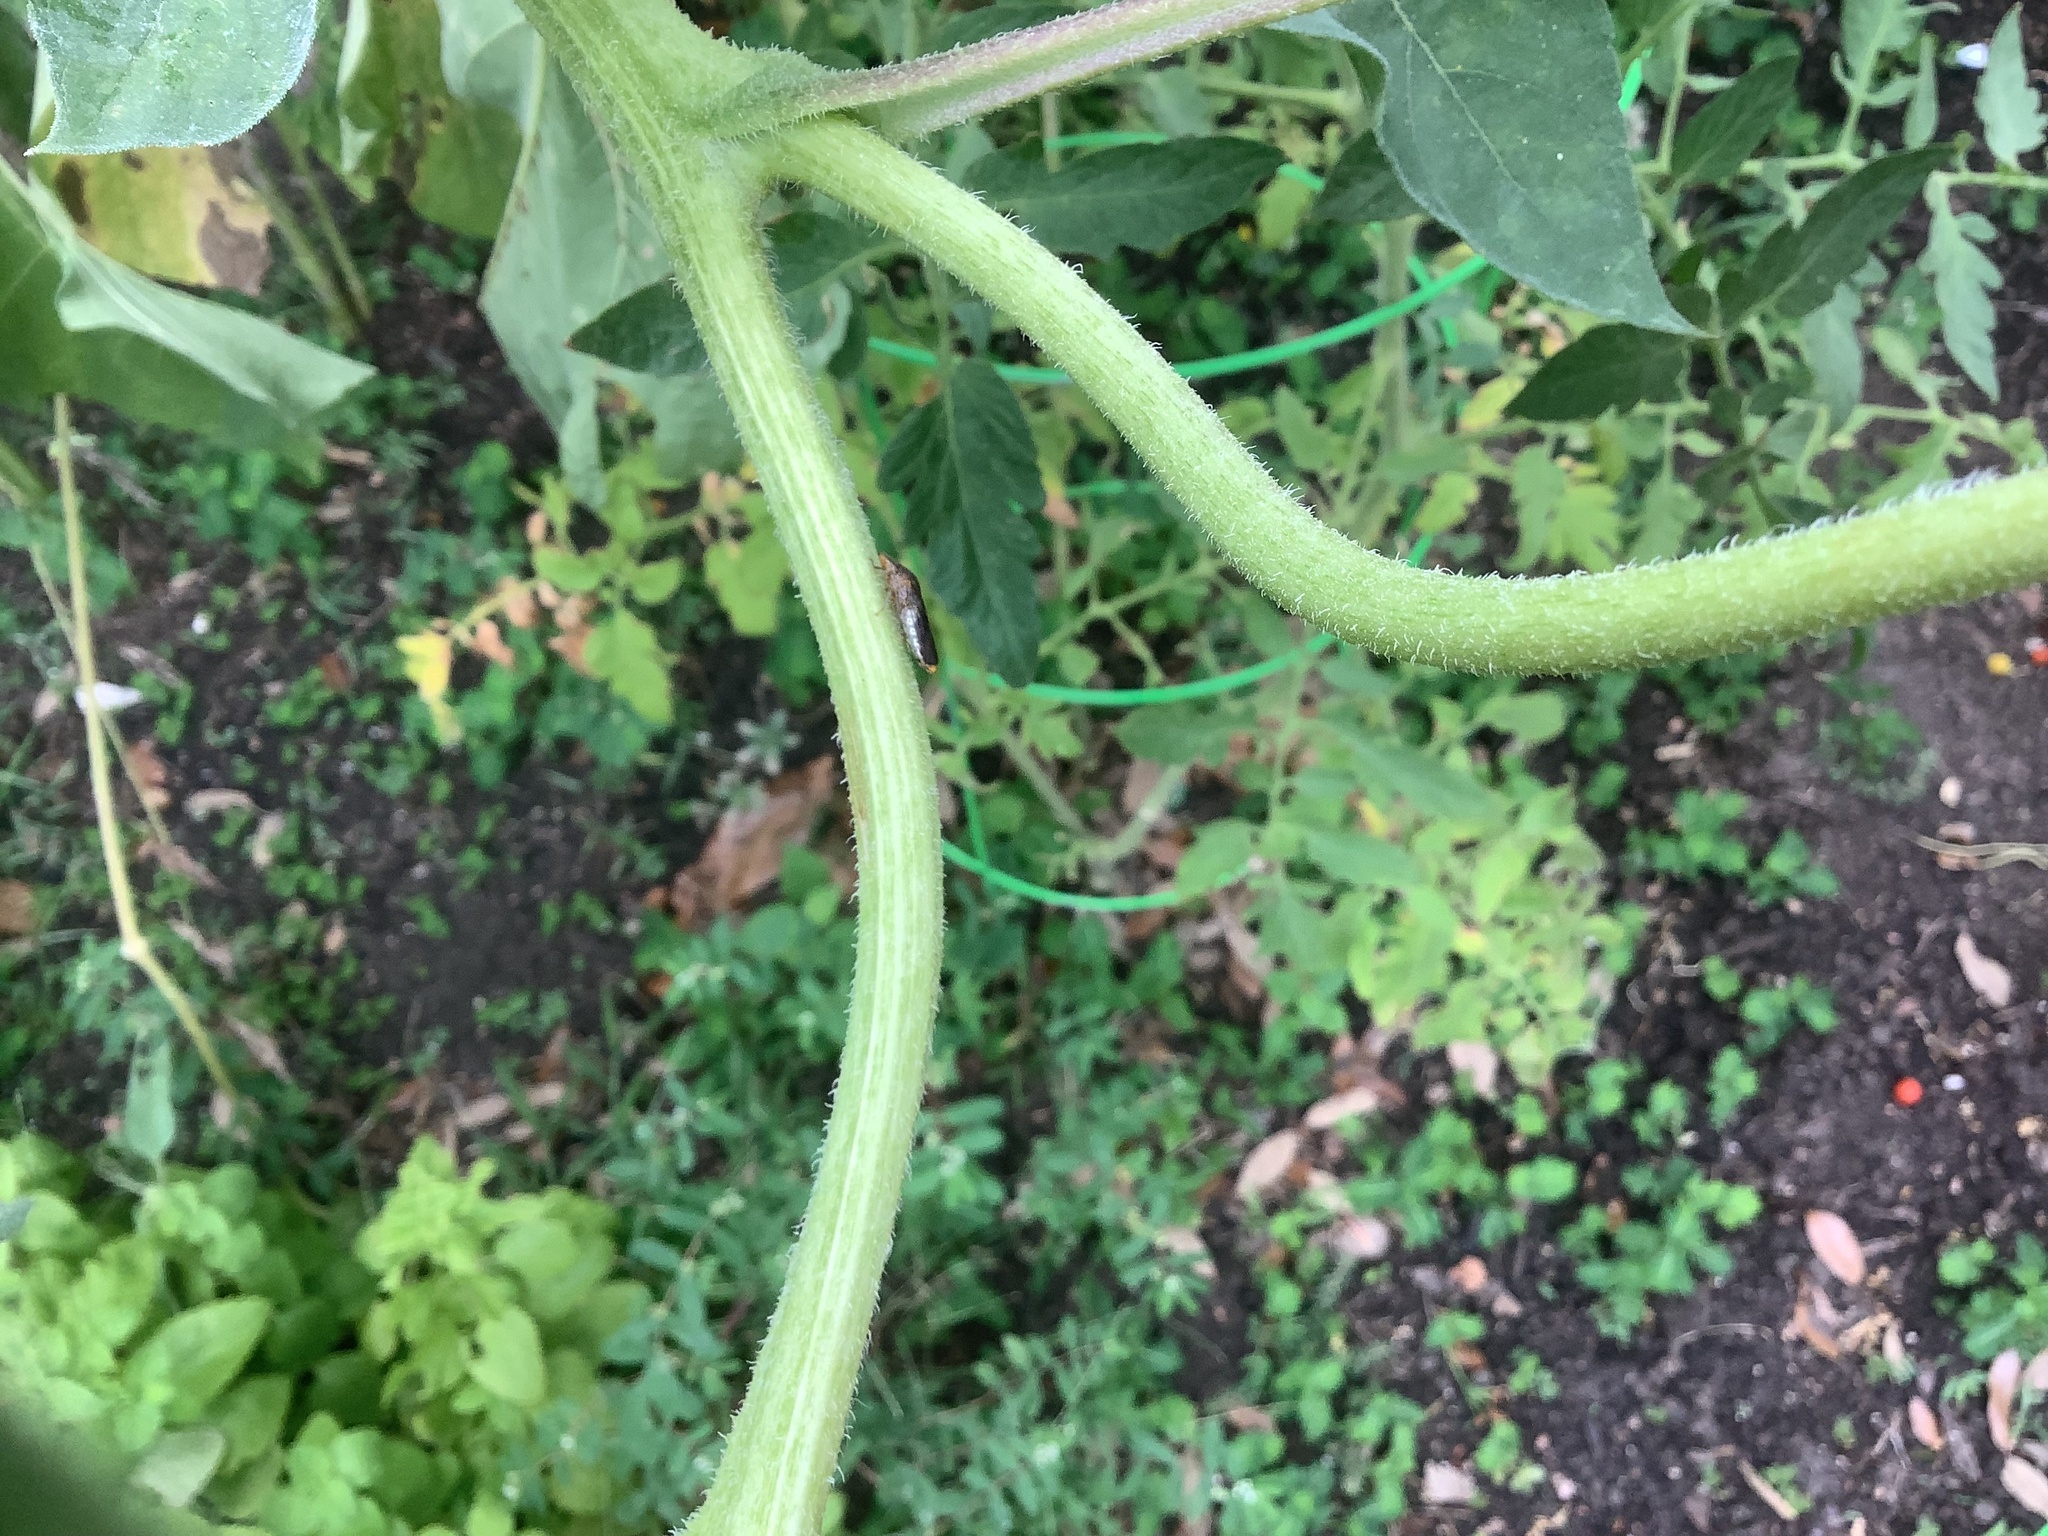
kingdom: Animalia
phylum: Arthropoda
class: Insecta
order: Hemiptera
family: Cicadellidae
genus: Homalodisca
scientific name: Homalodisca vitripennis
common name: Glassy-winged sharpshooter
